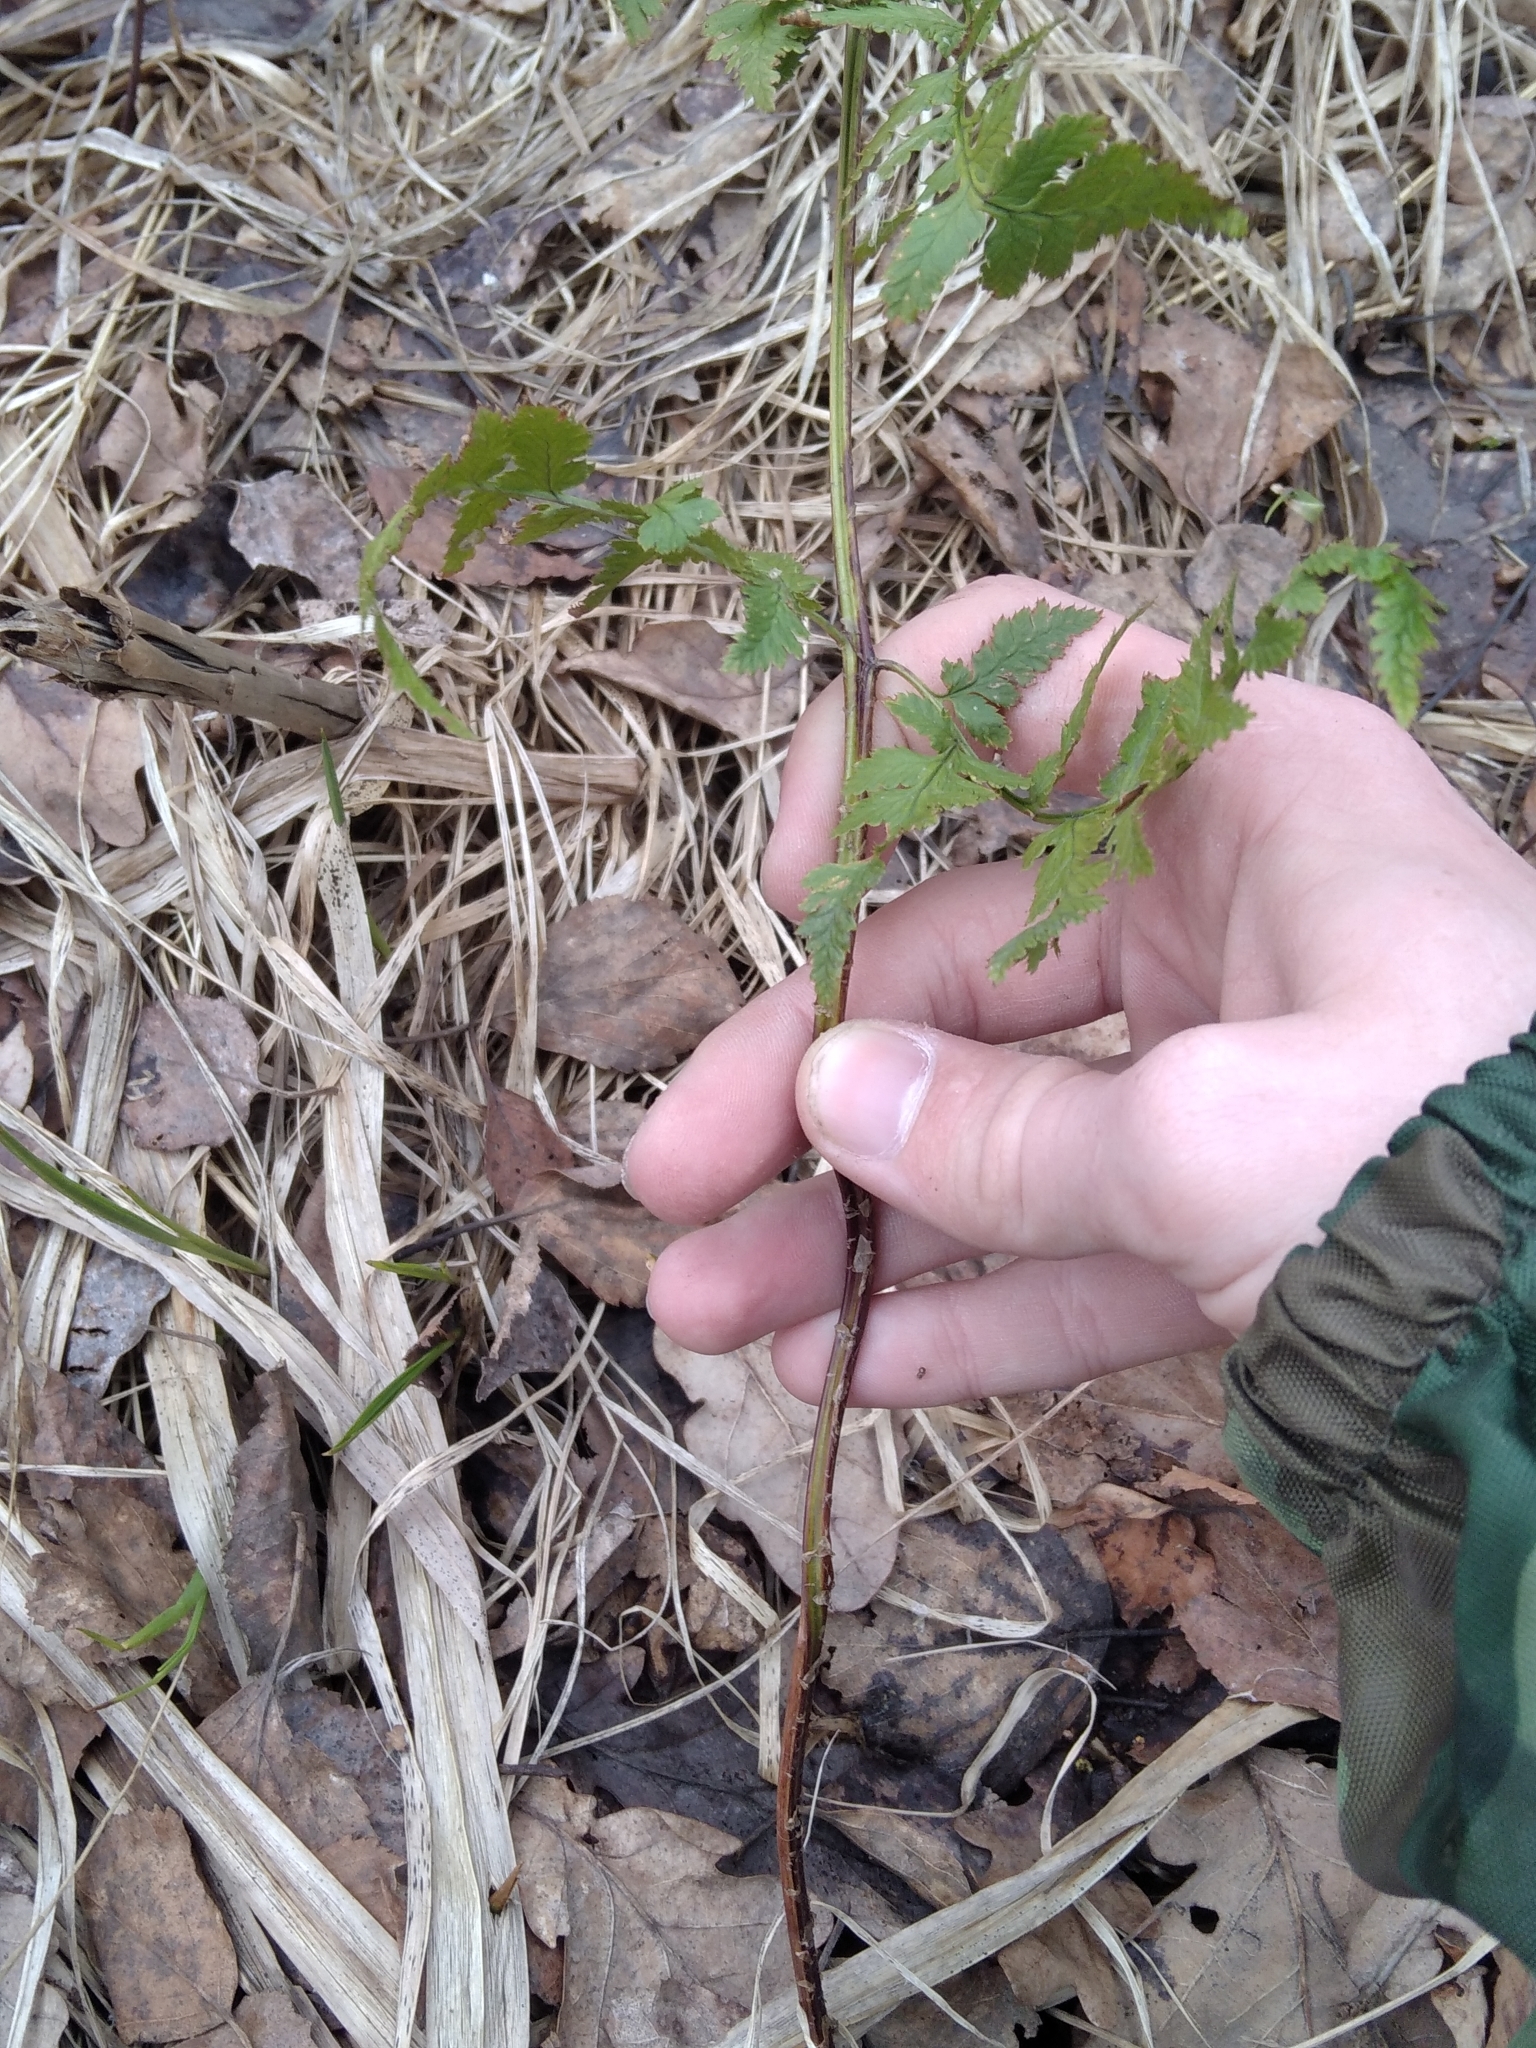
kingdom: Plantae
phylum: Tracheophyta
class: Polypodiopsida
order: Polypodiales
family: Dryopteridaceae
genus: Dryopteris
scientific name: Dryopteris carthusiana
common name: Narrow buckler-fern
